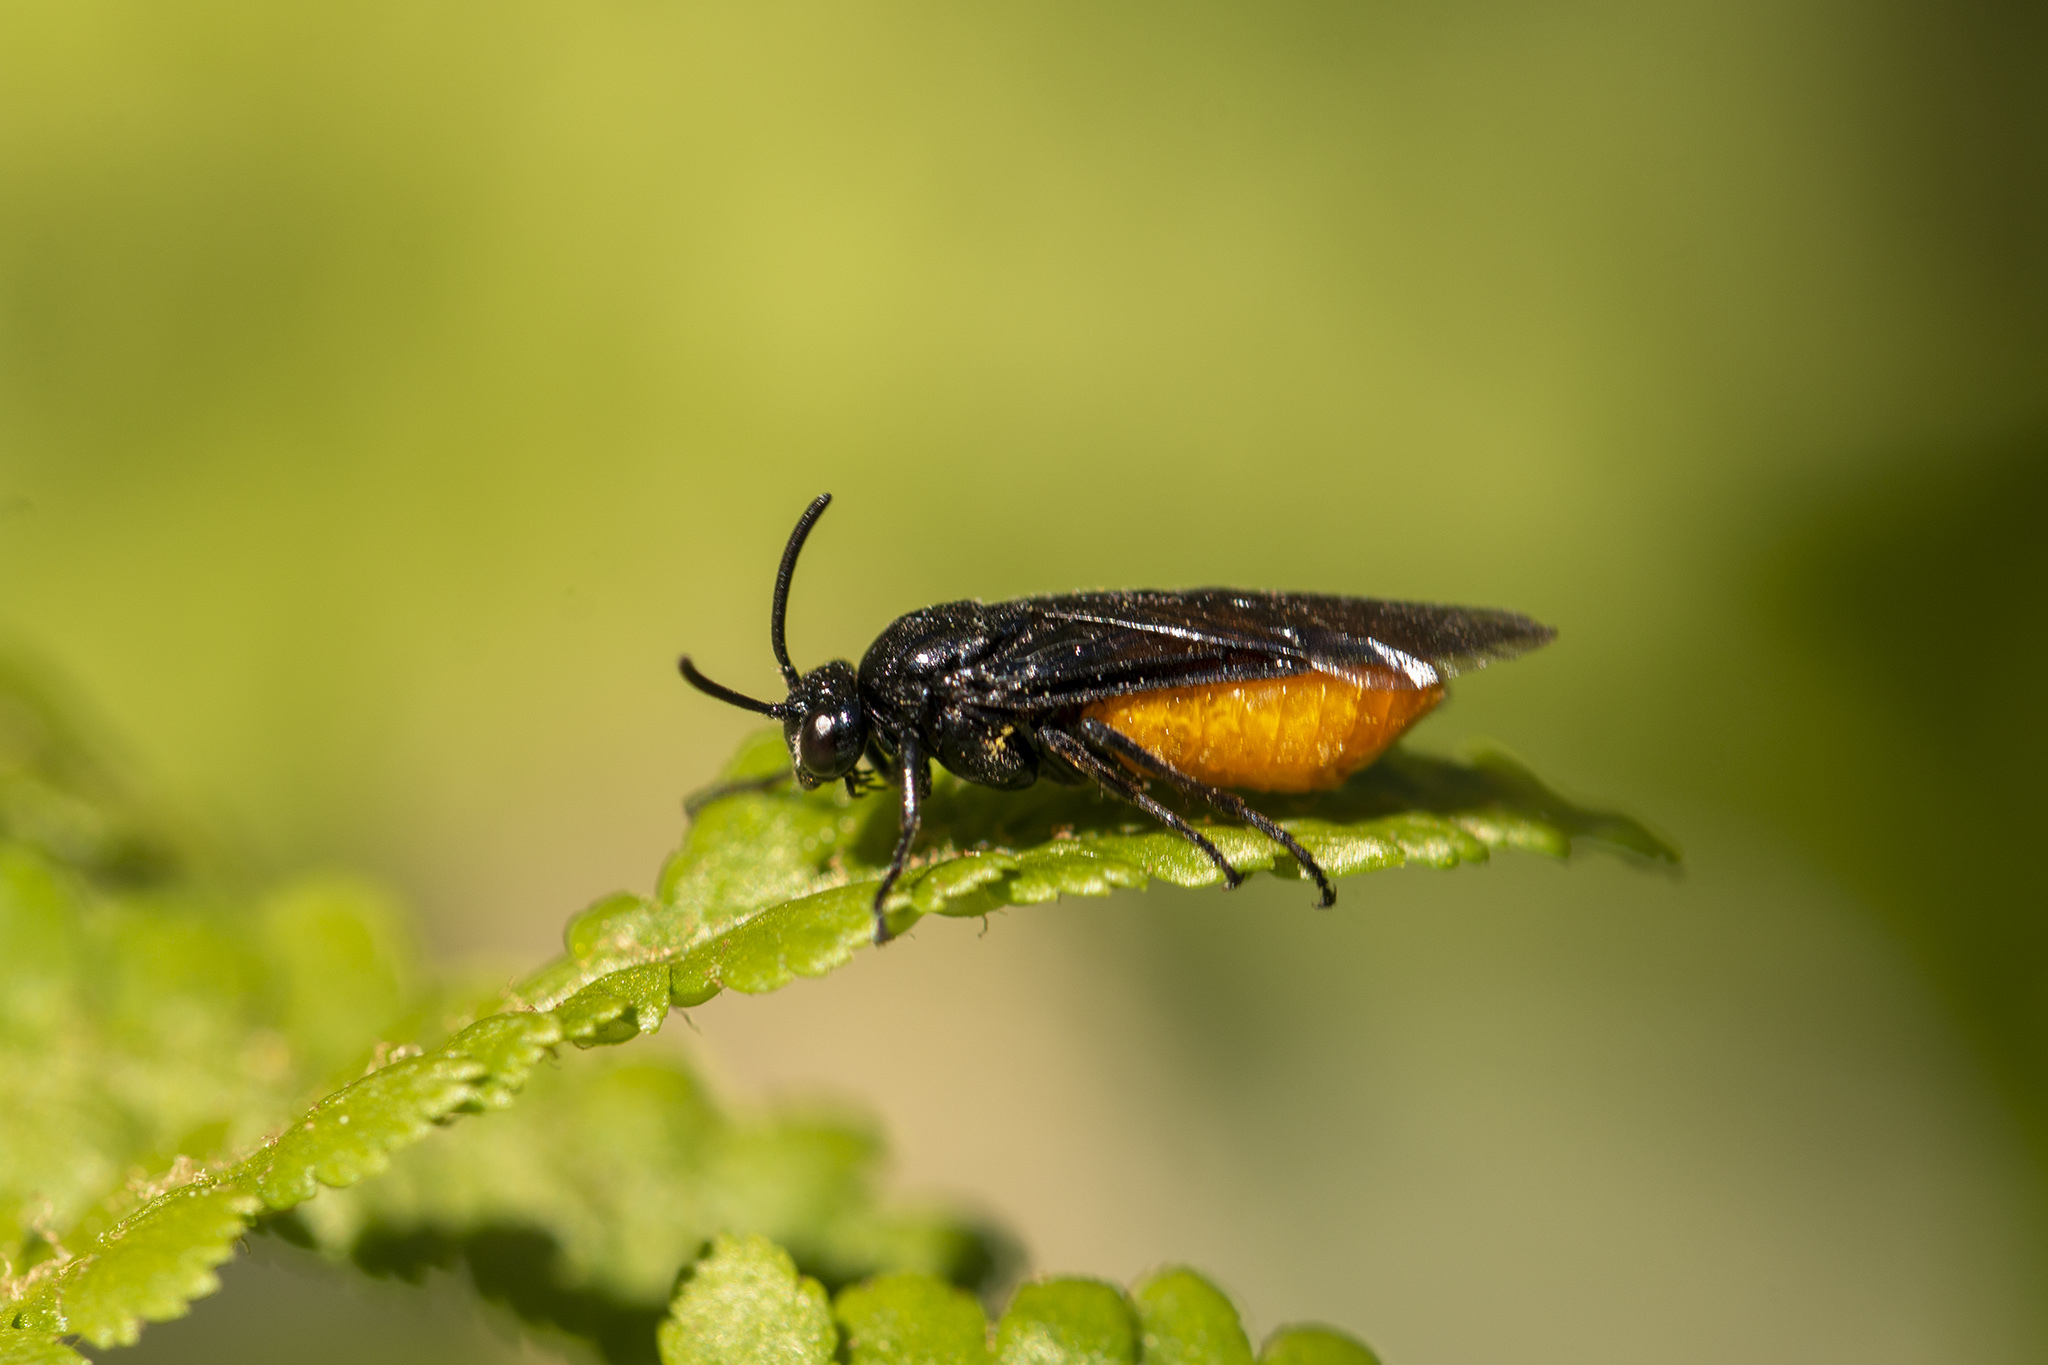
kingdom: Animalia
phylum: Arthropoda
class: Insecta
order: Hymenoptera
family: Argidae
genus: Arge
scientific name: Arge pagana
